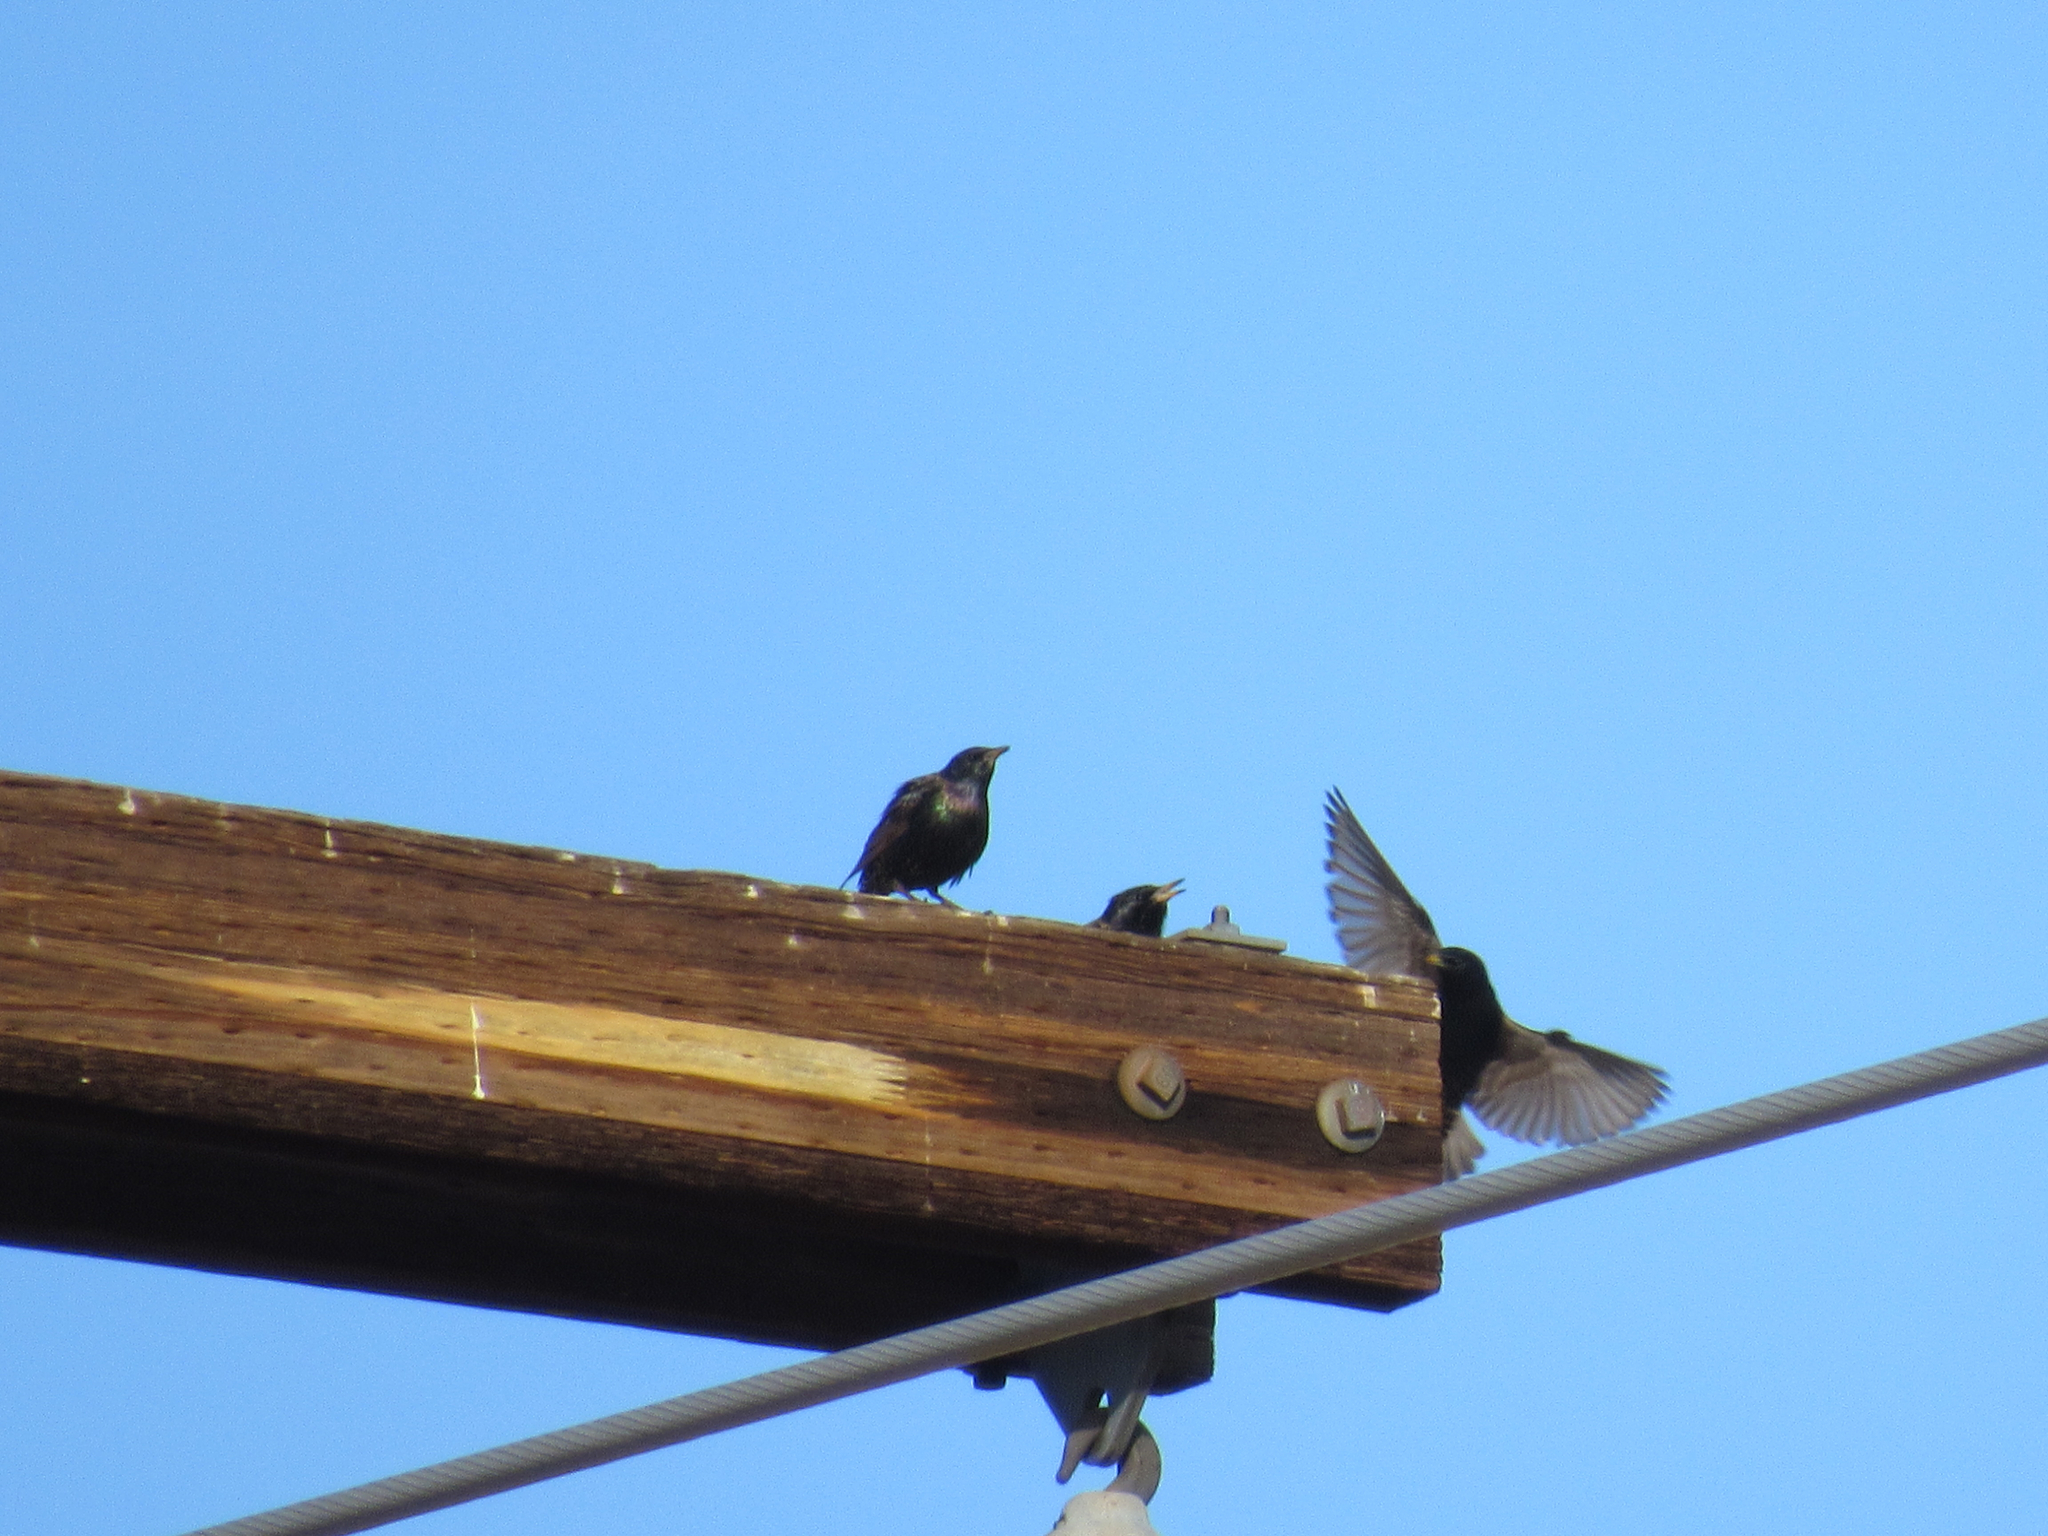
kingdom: Animalia
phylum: Chordata
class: Aves
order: Passeriformes
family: Sturnidae
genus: Sturnus
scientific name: Sturnus vulgaris
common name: Common starling
